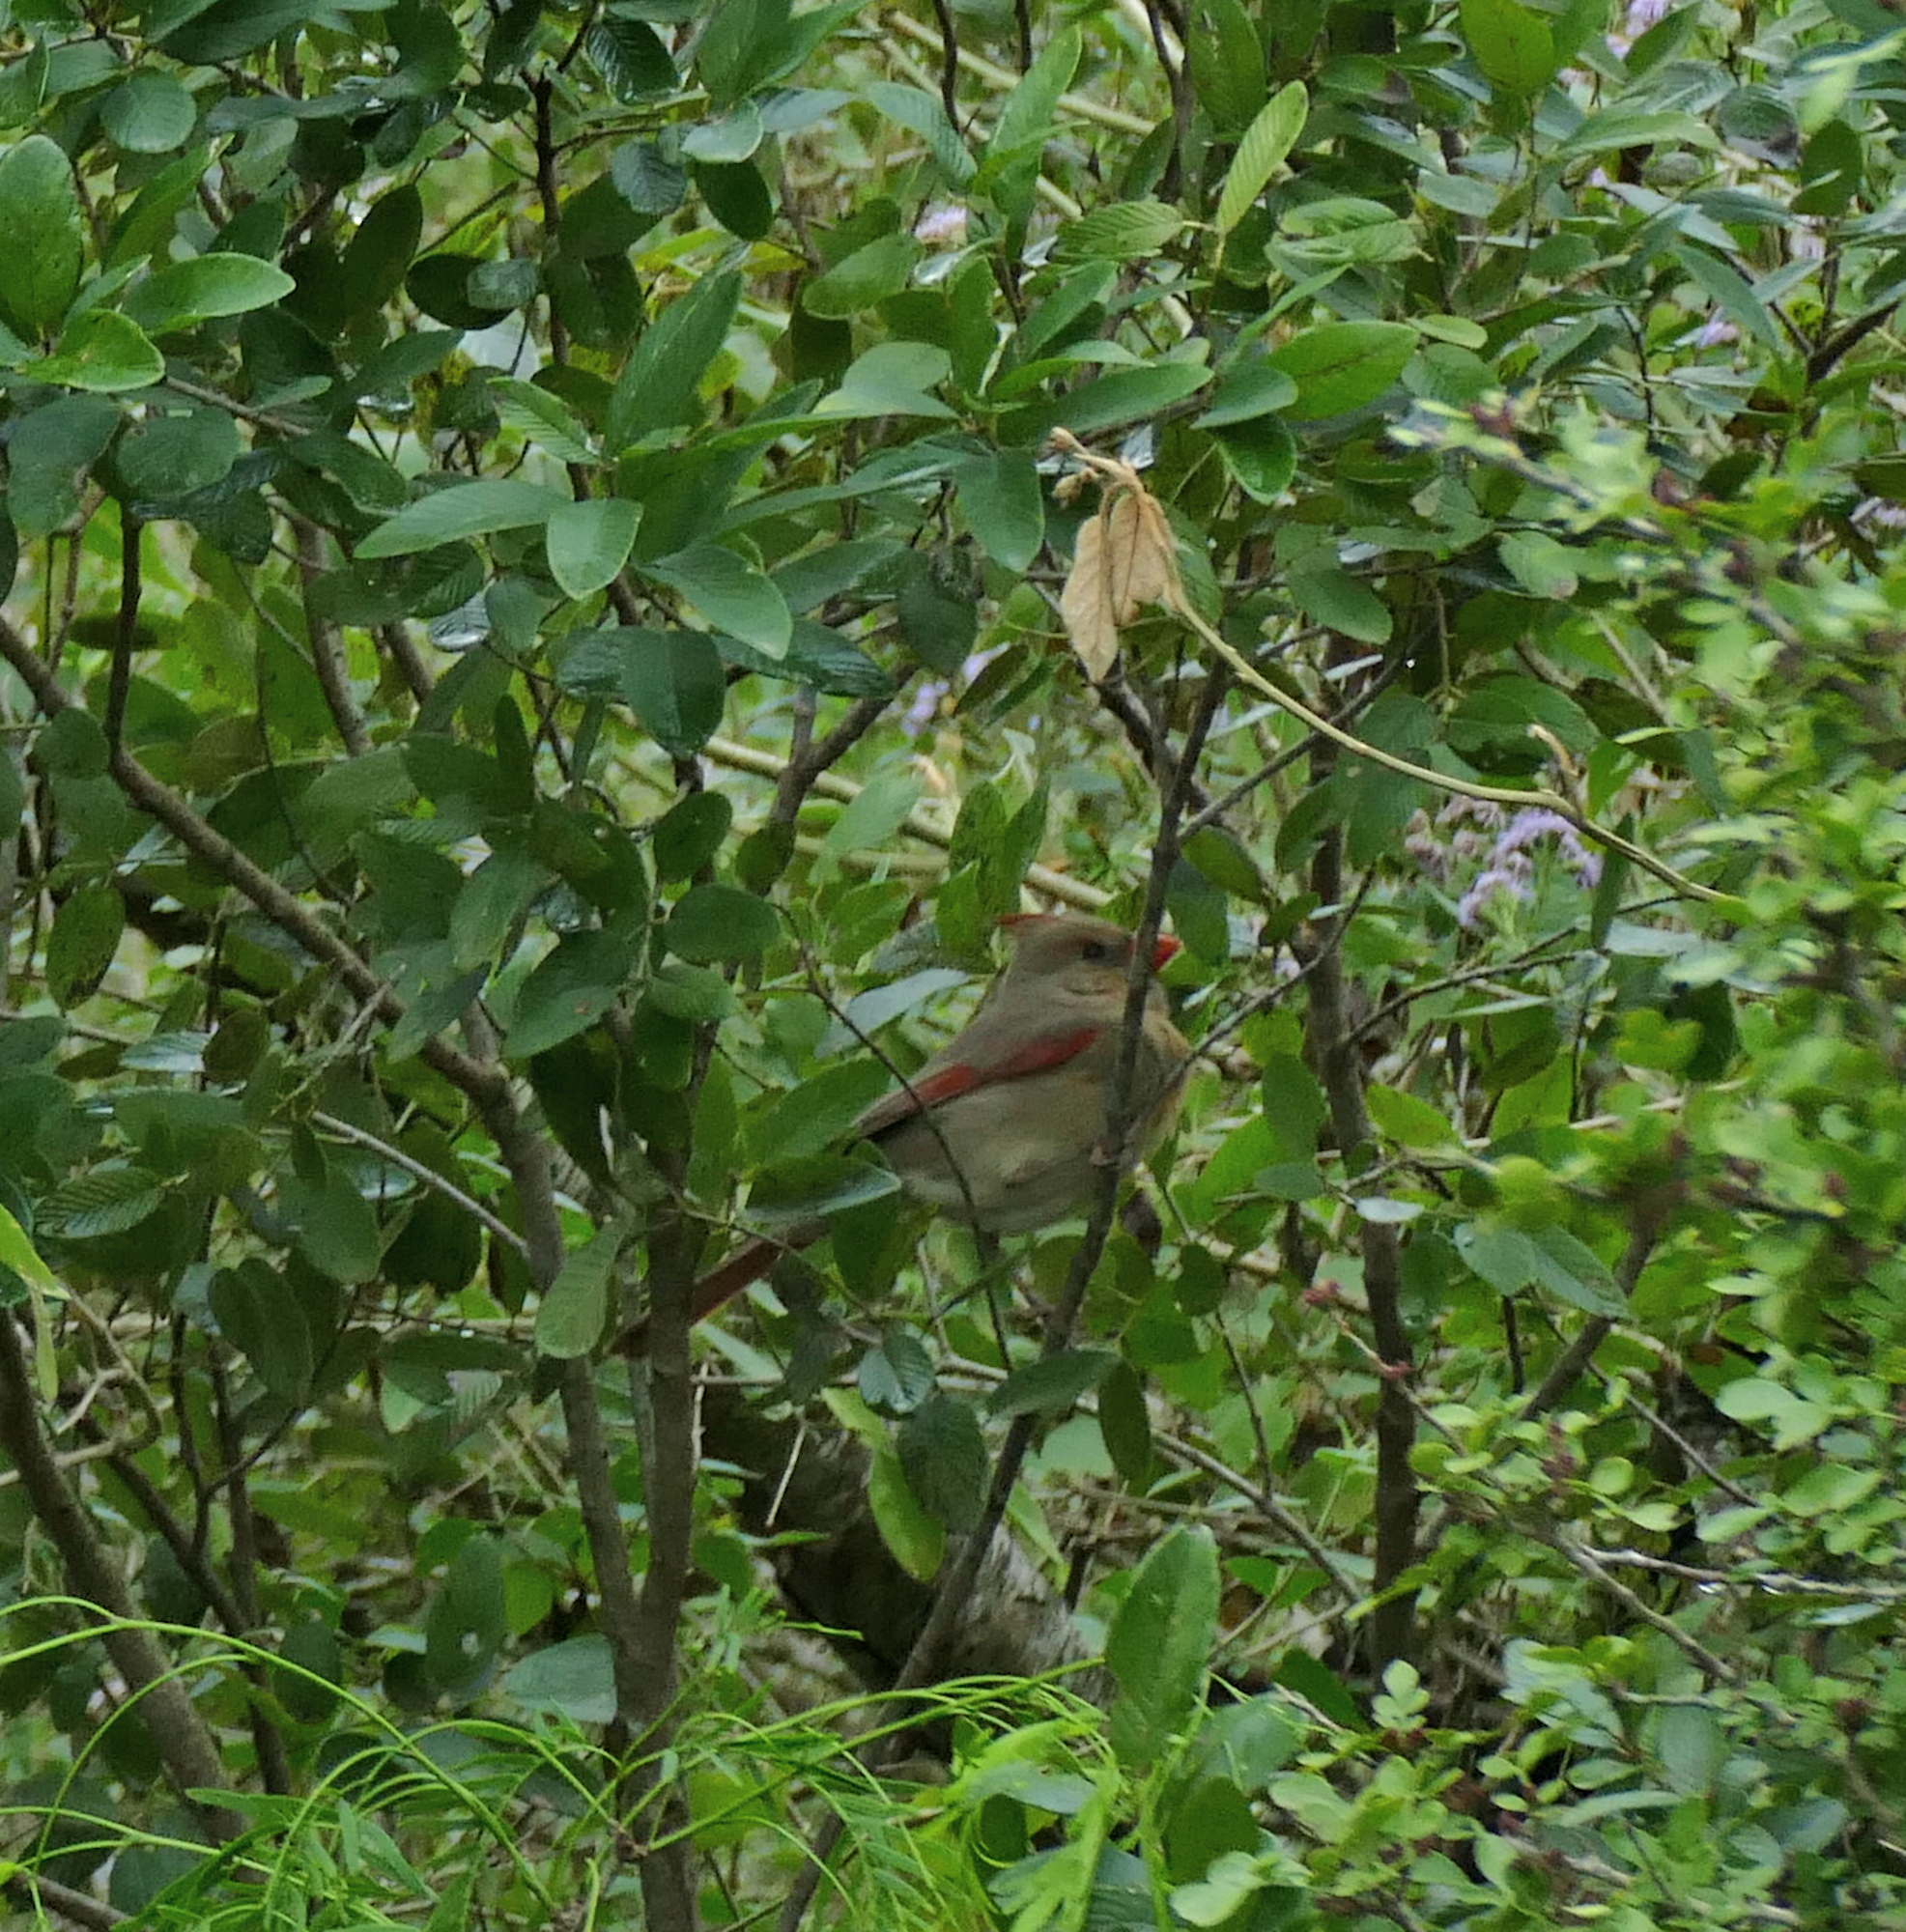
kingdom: Animalia
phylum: Chordata
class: Aves
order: Passeriformes
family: Cardinalidae
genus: Cardinalis
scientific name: Cardinalis cardinalis
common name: Northern cardinal
